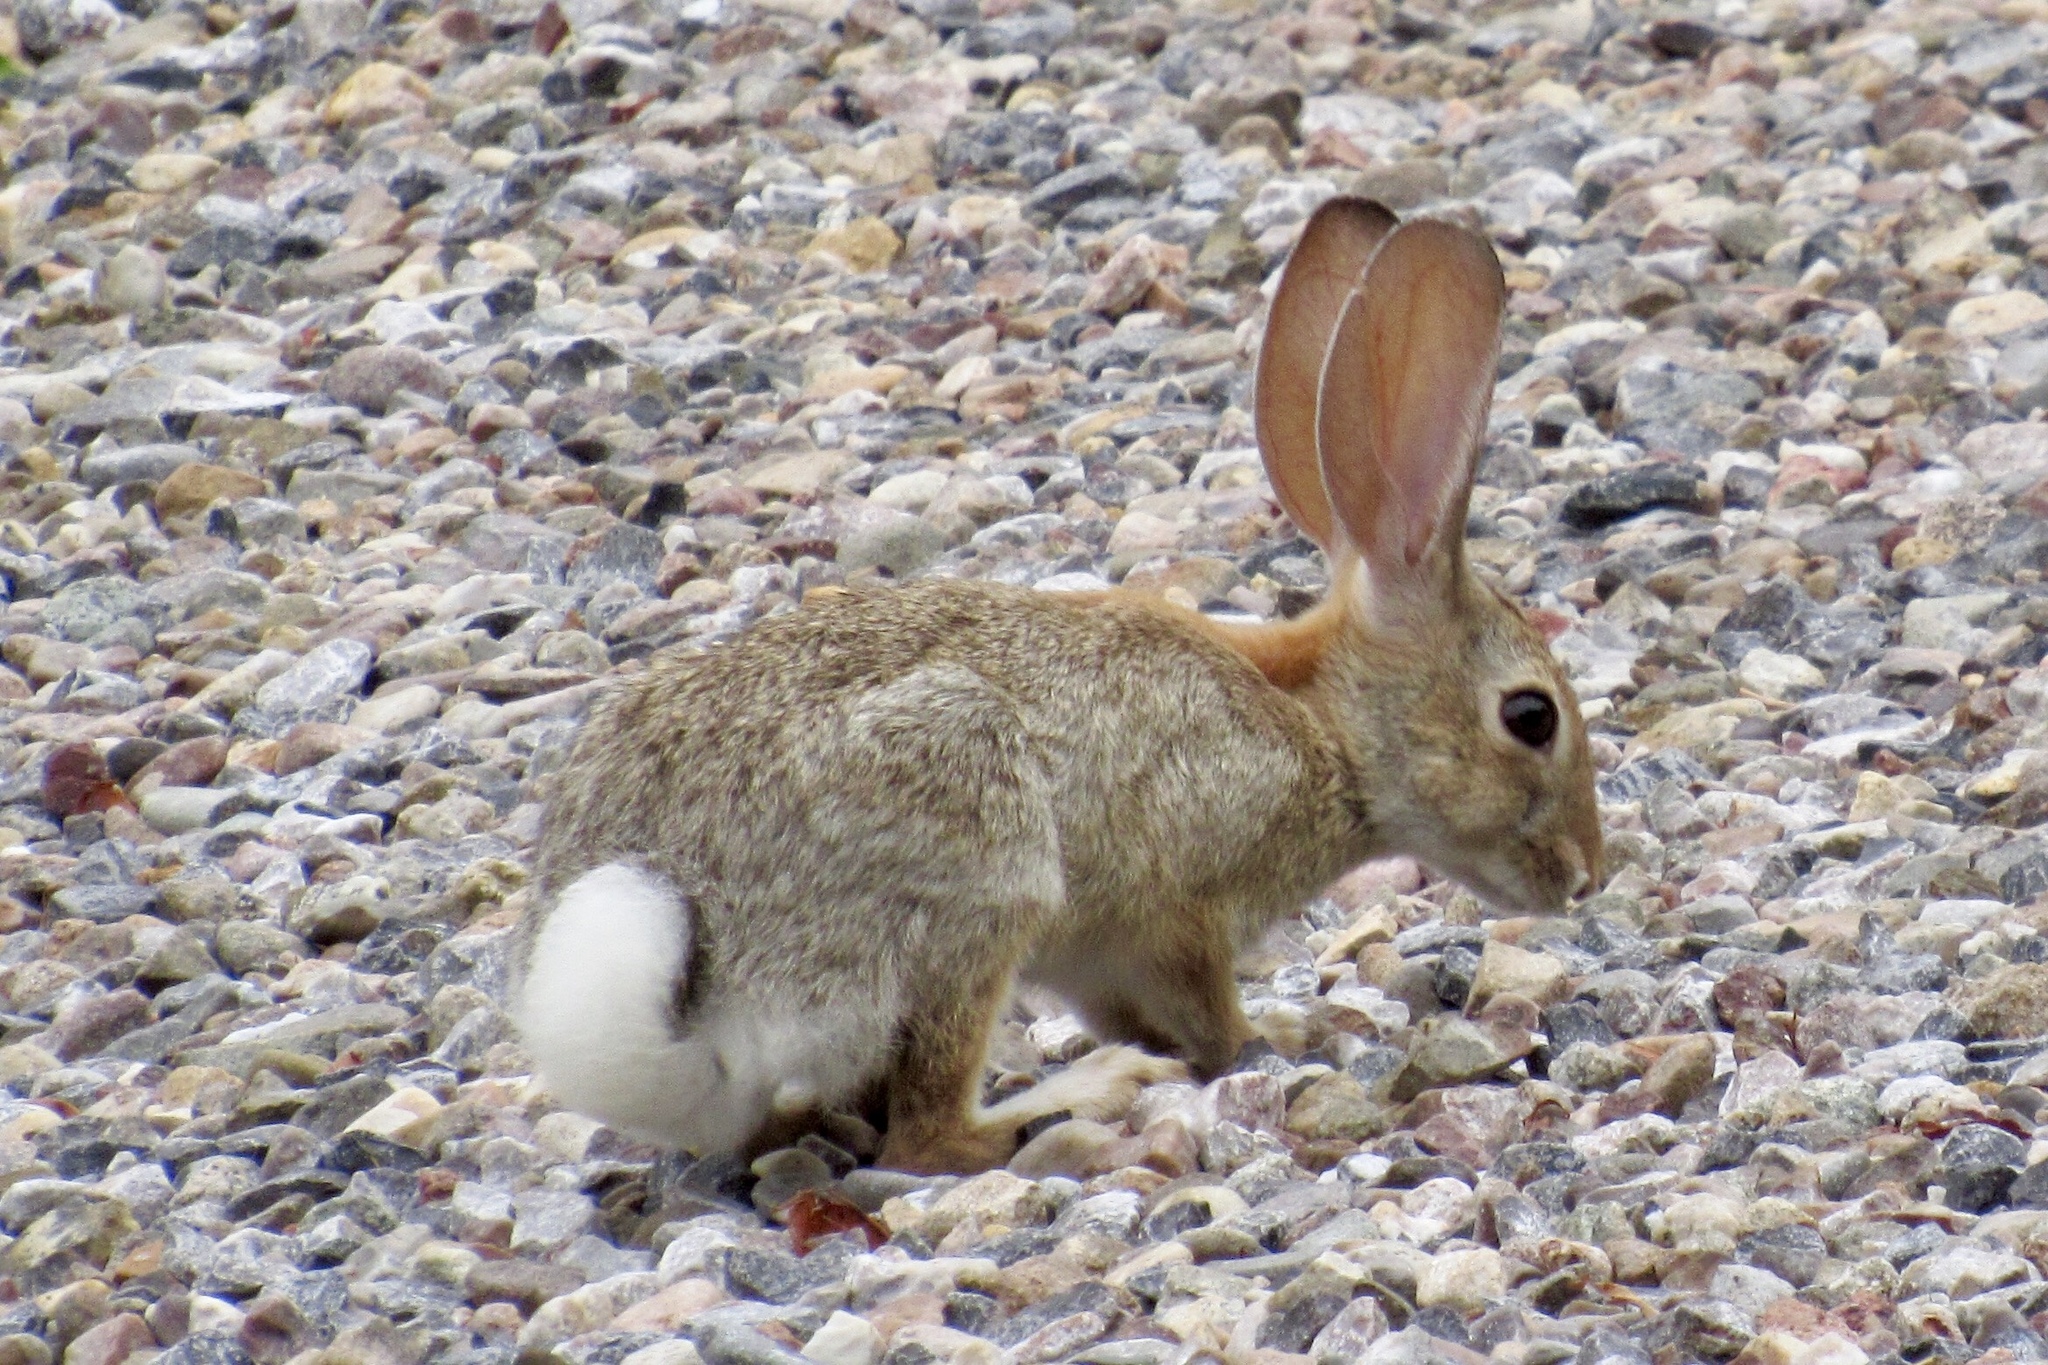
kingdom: Animalia
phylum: Chordata
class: Mammalia
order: Lagomorpha
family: Leporidae
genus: Sylvilagus
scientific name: Sylvilagus audubonii
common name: Desert cottontail
